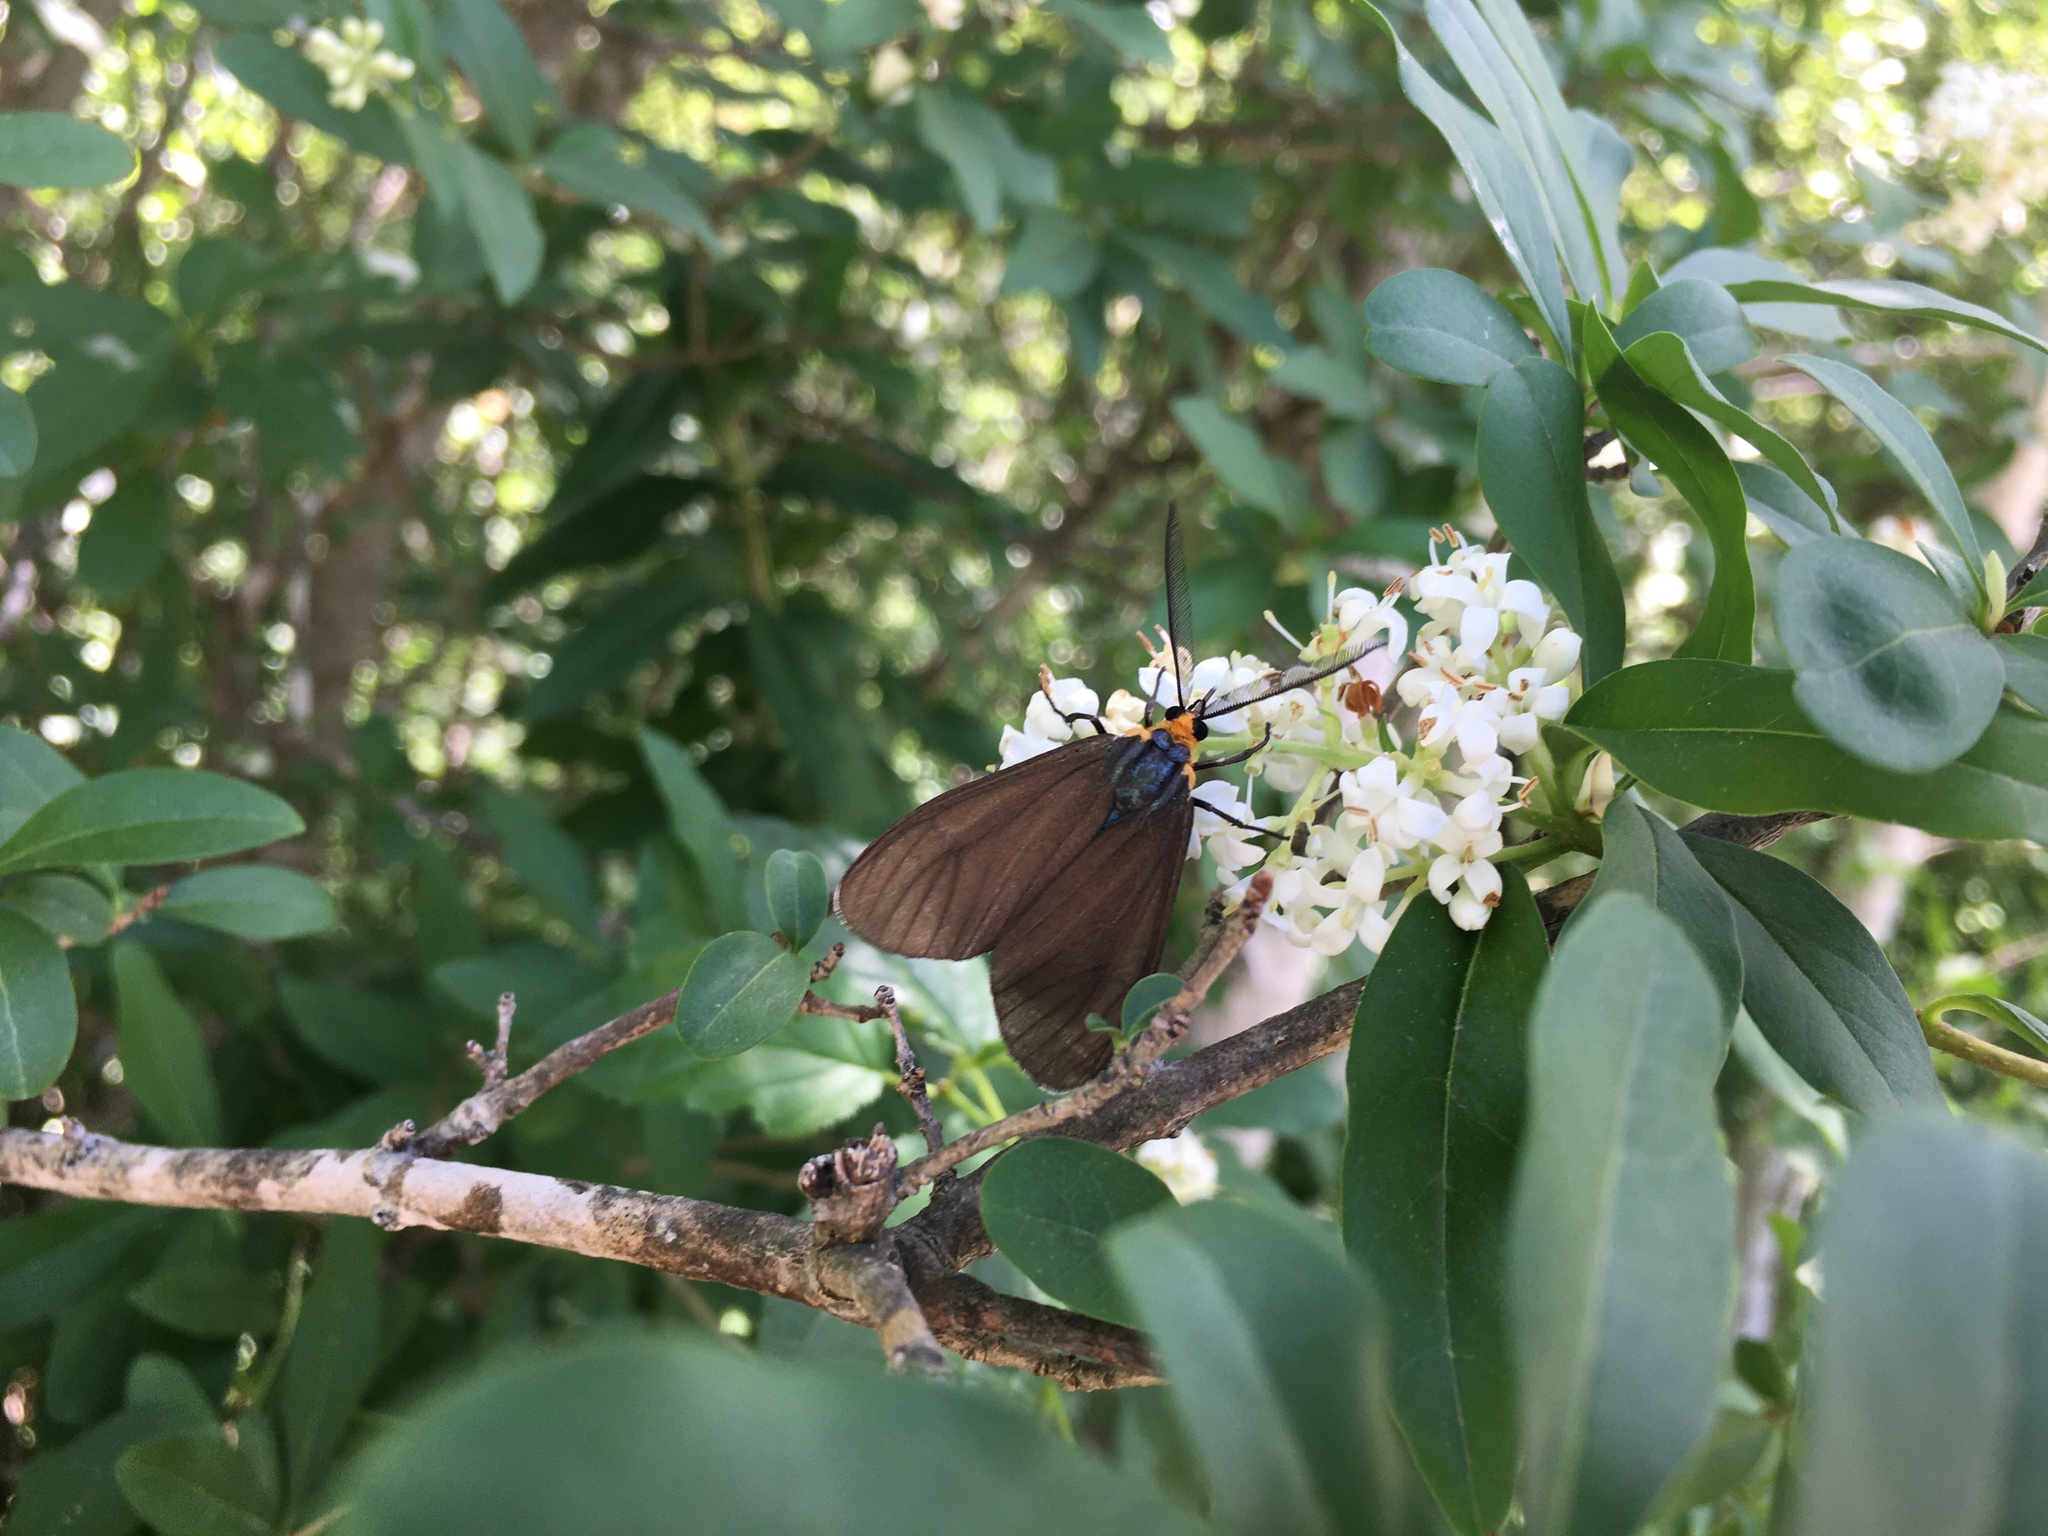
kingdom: Animalia
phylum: Arthropoda
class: Insecta
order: Lepidoptera
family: Erebidae
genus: Ctenucha
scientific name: Ctenucha virginica
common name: Virginia ctenucha moth
